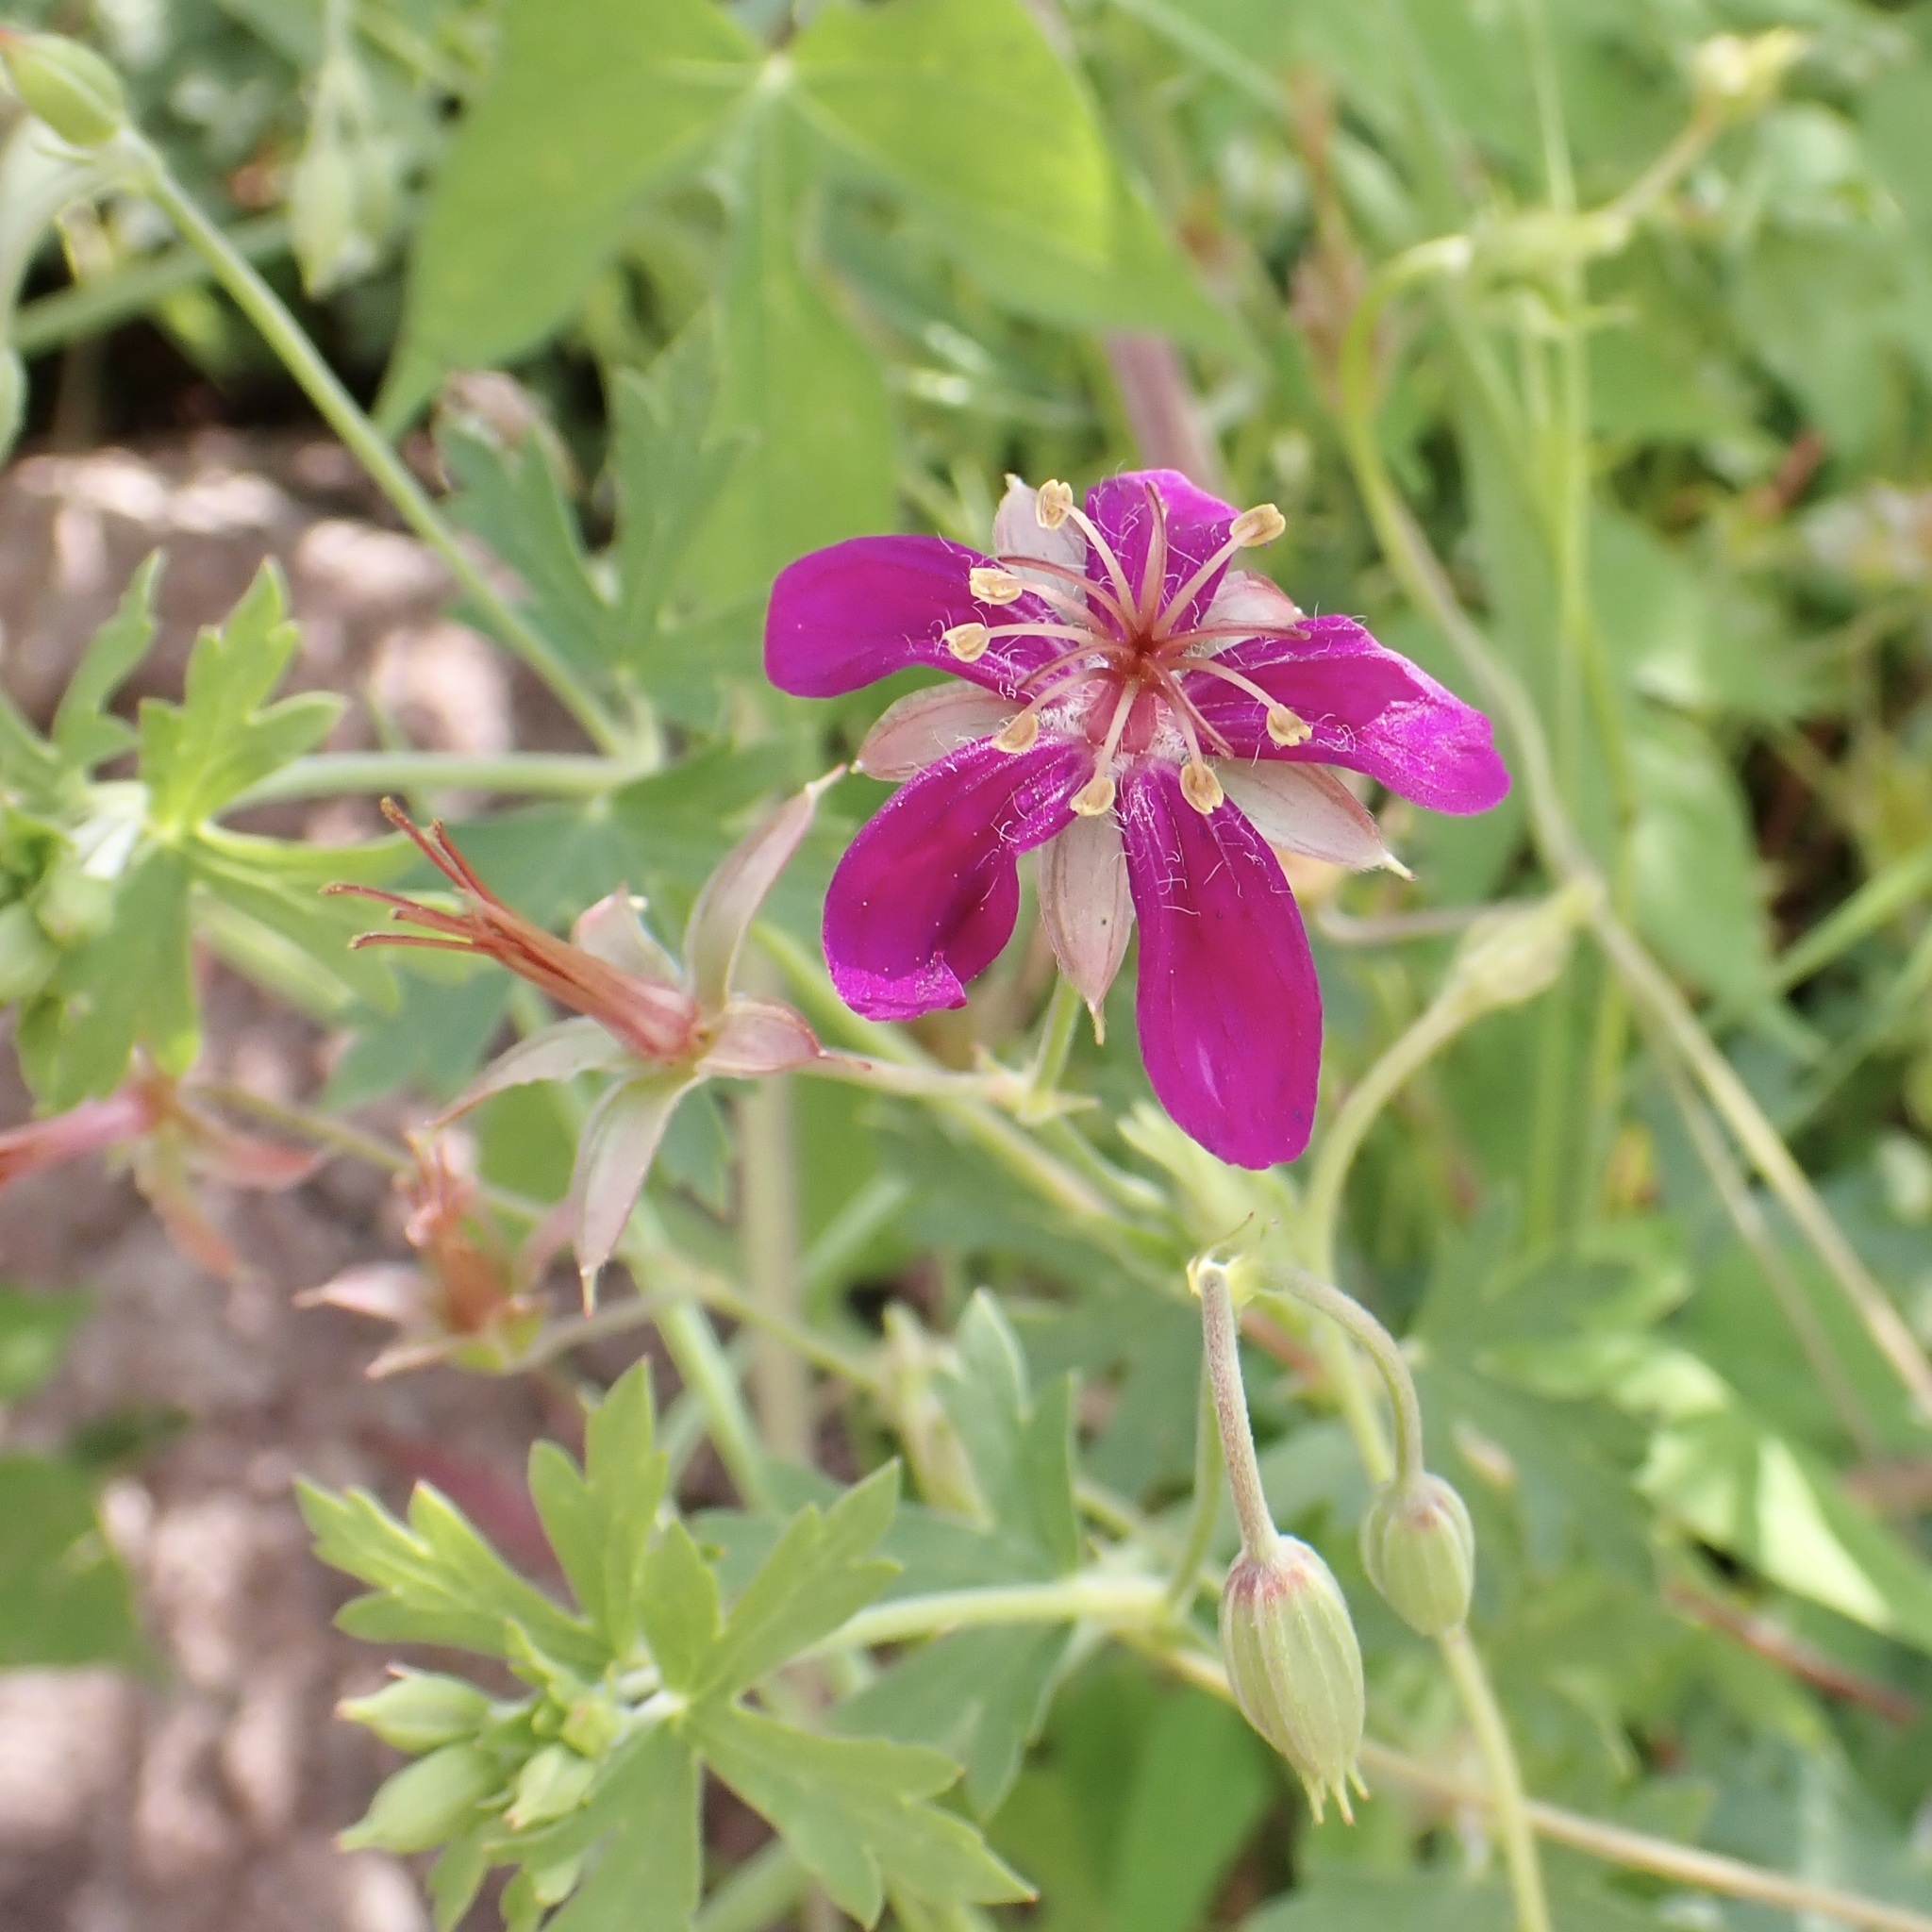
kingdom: Plantae
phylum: Tracheophyta
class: Magnoliopsida
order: Geraniales
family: Geraniaceae
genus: Geranium
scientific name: Geranium caespitosum
